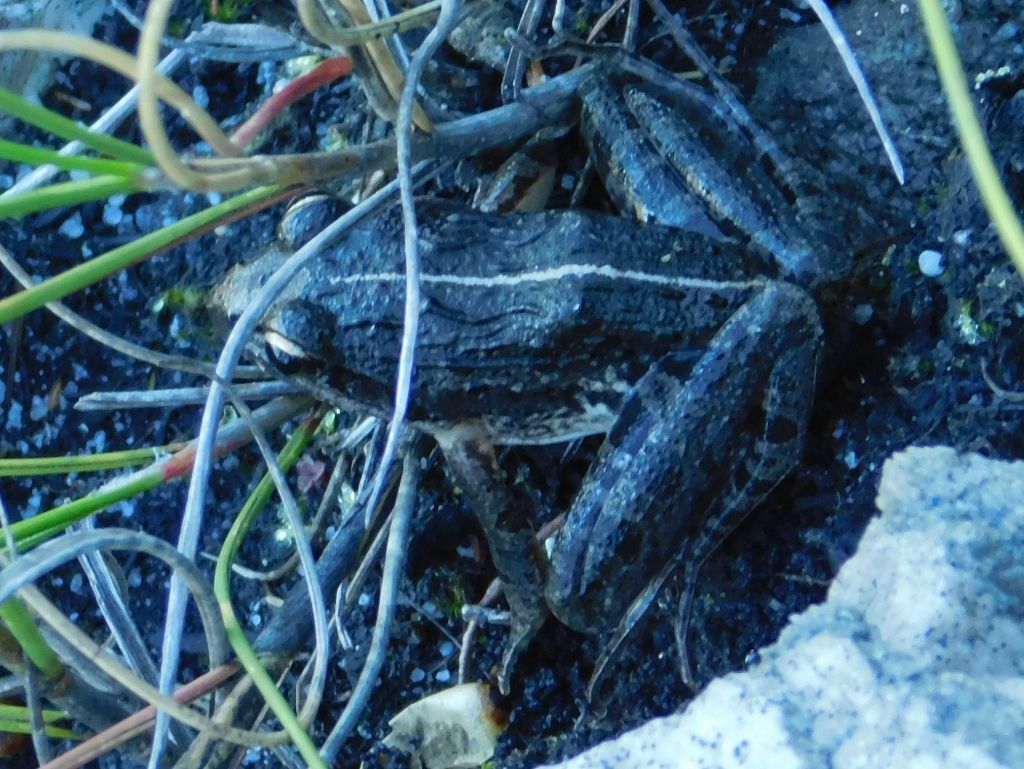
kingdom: Animalia
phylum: Chordata
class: Amphibia
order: Anura
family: Pyxicephalidae
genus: Strongylopus
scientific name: Strongylopus grayii
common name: Gray's stream frog
